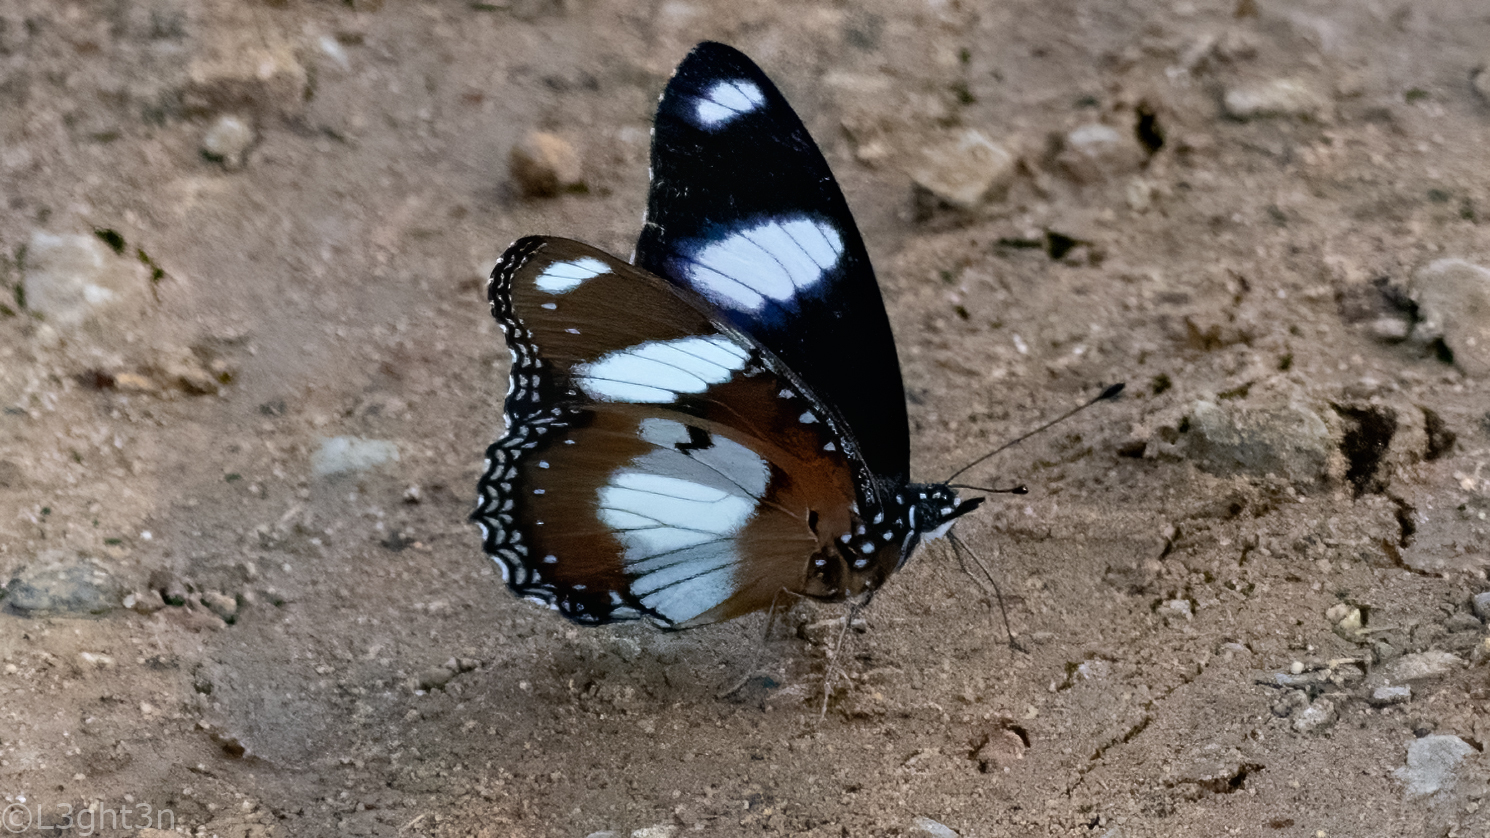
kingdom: Animalia
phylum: Arthropoda
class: Insecta
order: Lepidoptera
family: Nymphalidae
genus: Hypolimnas
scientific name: Hypolimnas misippus
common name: False plain tiger
